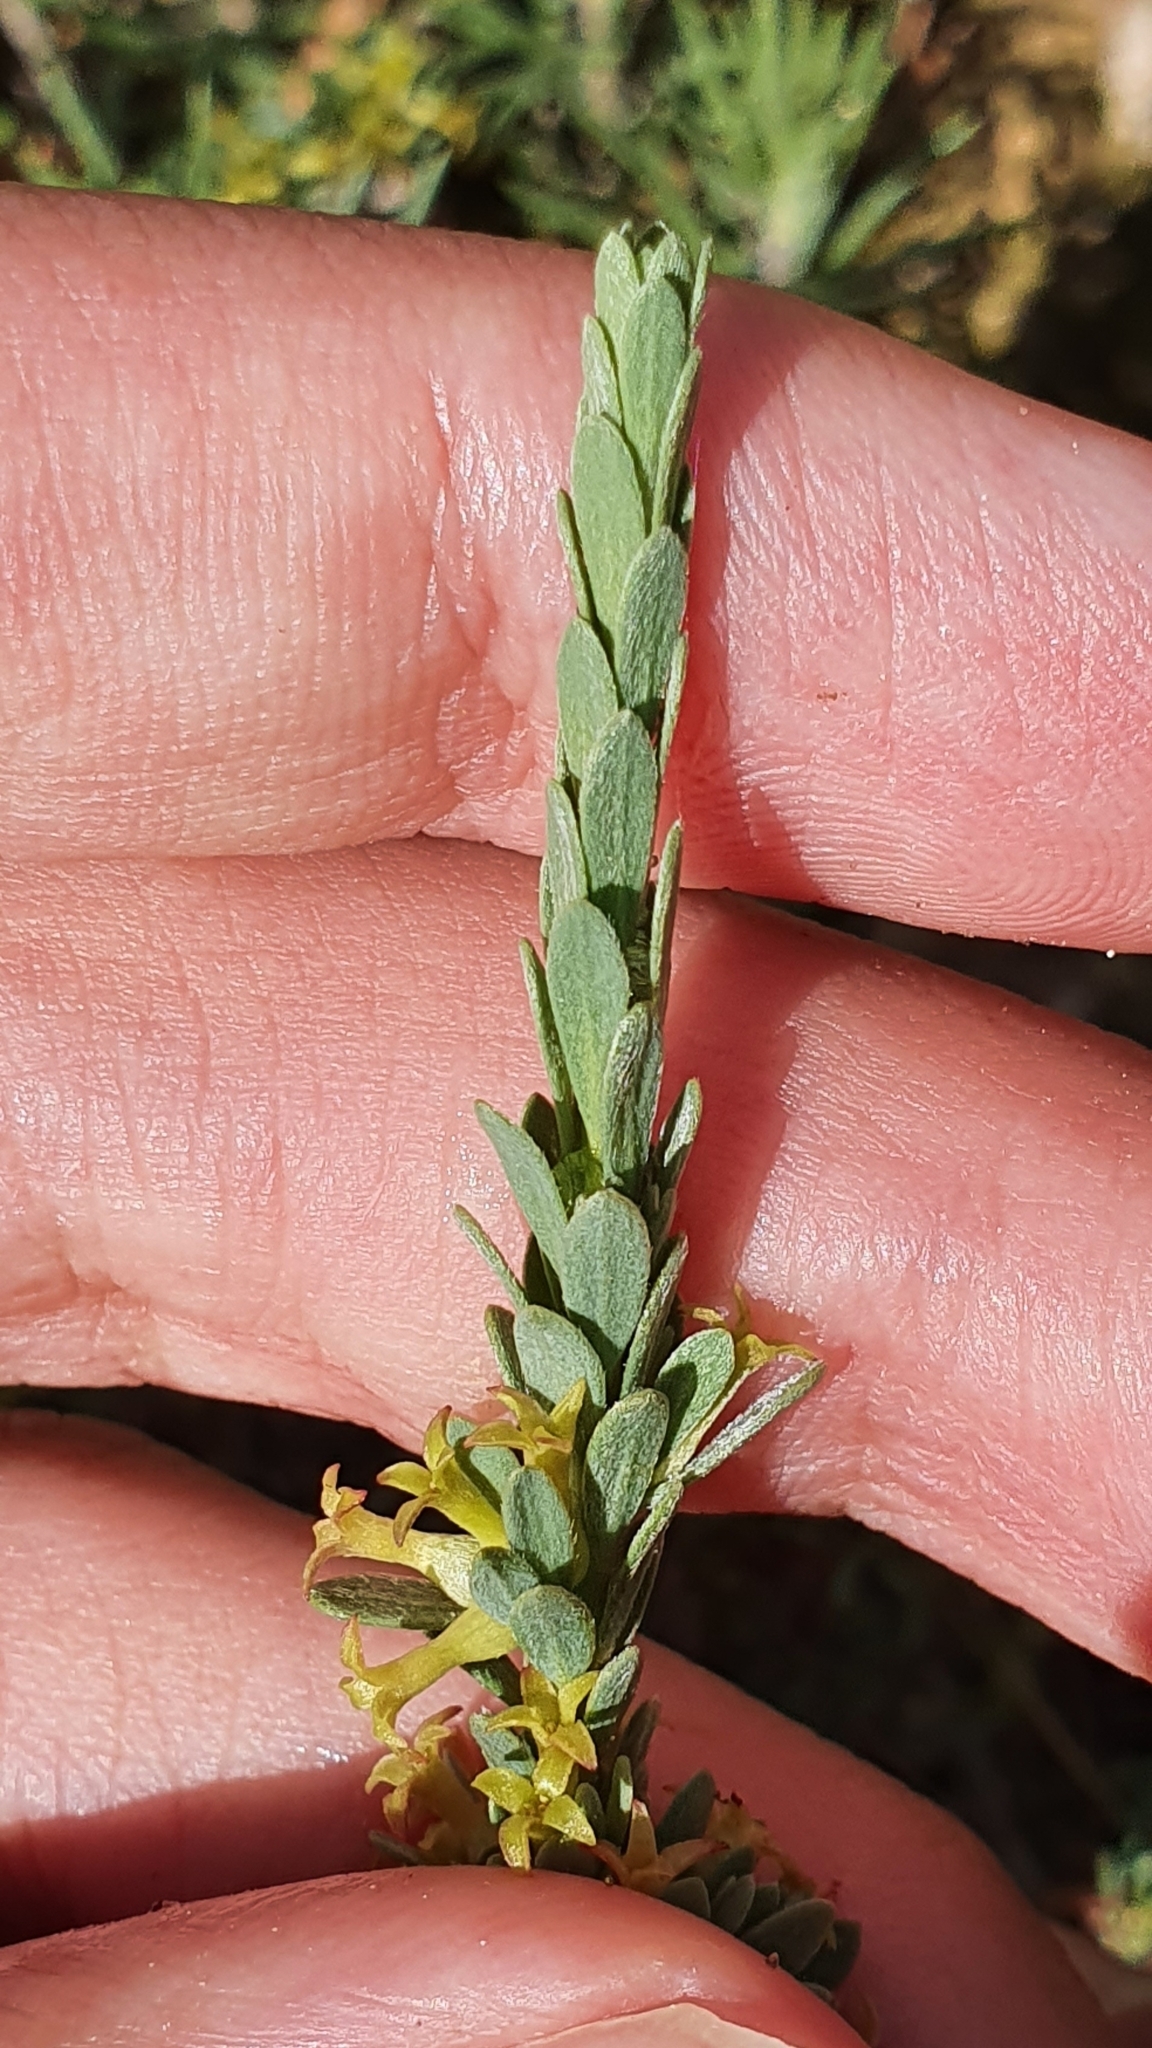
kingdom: Plantae
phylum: Tracheophyta
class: Magnoliopsida
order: Malvales
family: Thymelaeaceae
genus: Thymelaea
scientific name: Thymelaea argentata
